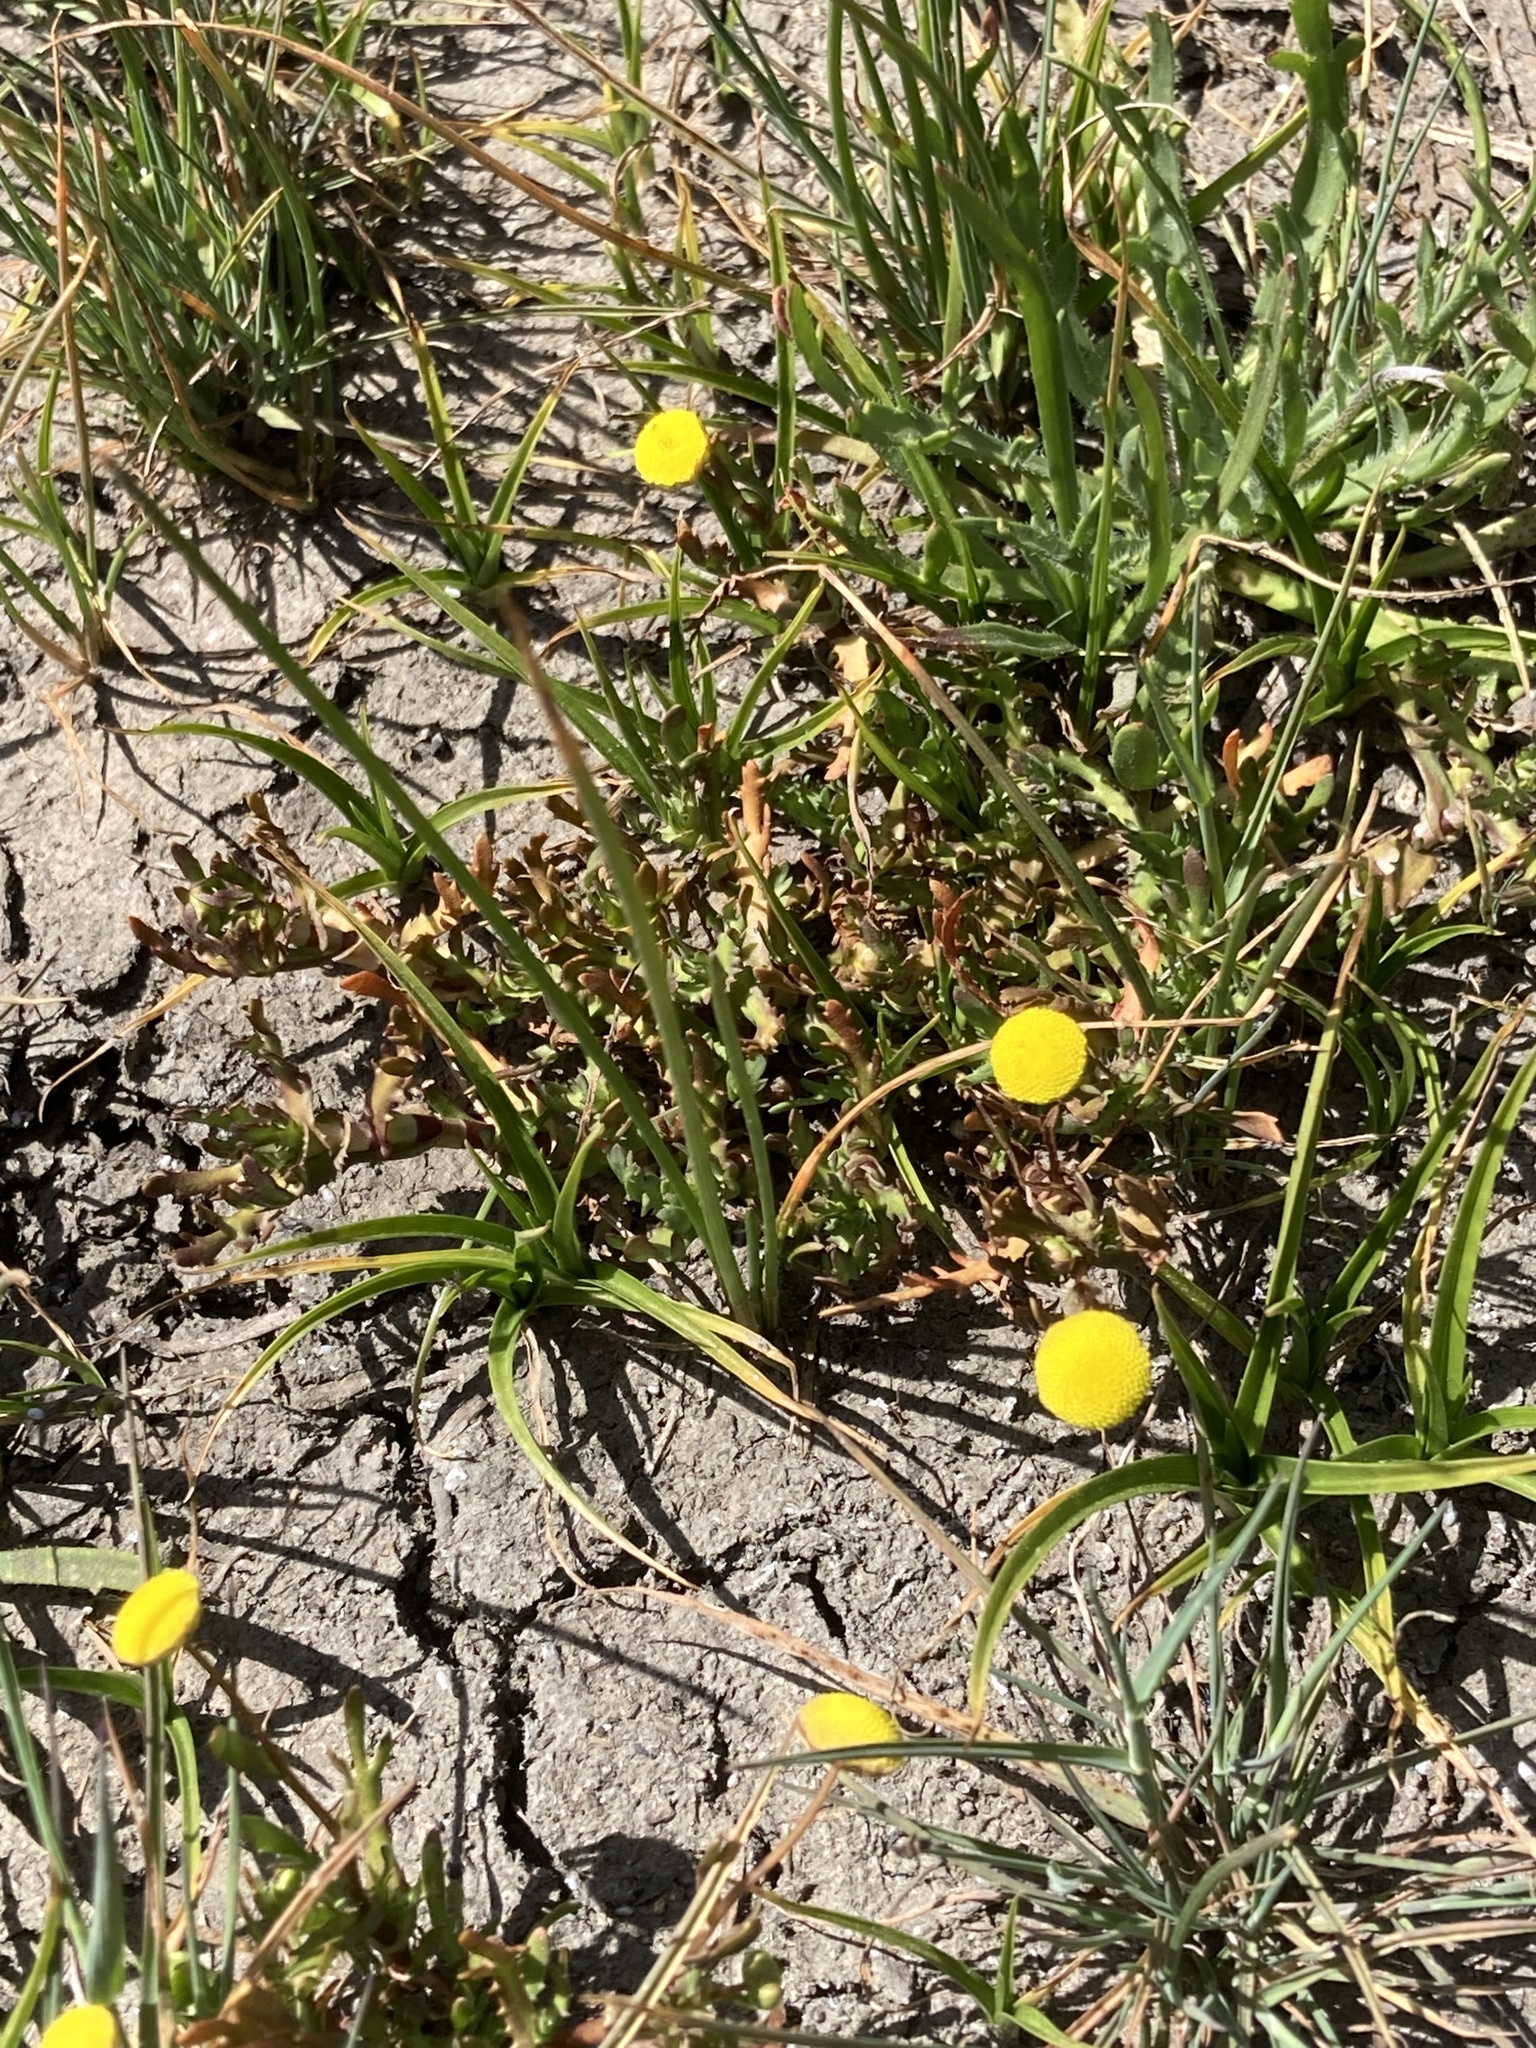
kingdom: Plantae
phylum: Tracheophyta
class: Magnoliopsida
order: Asterales
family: Asteraceae
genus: Cotula
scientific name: Cotula coronopifolia
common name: Buttonweed
